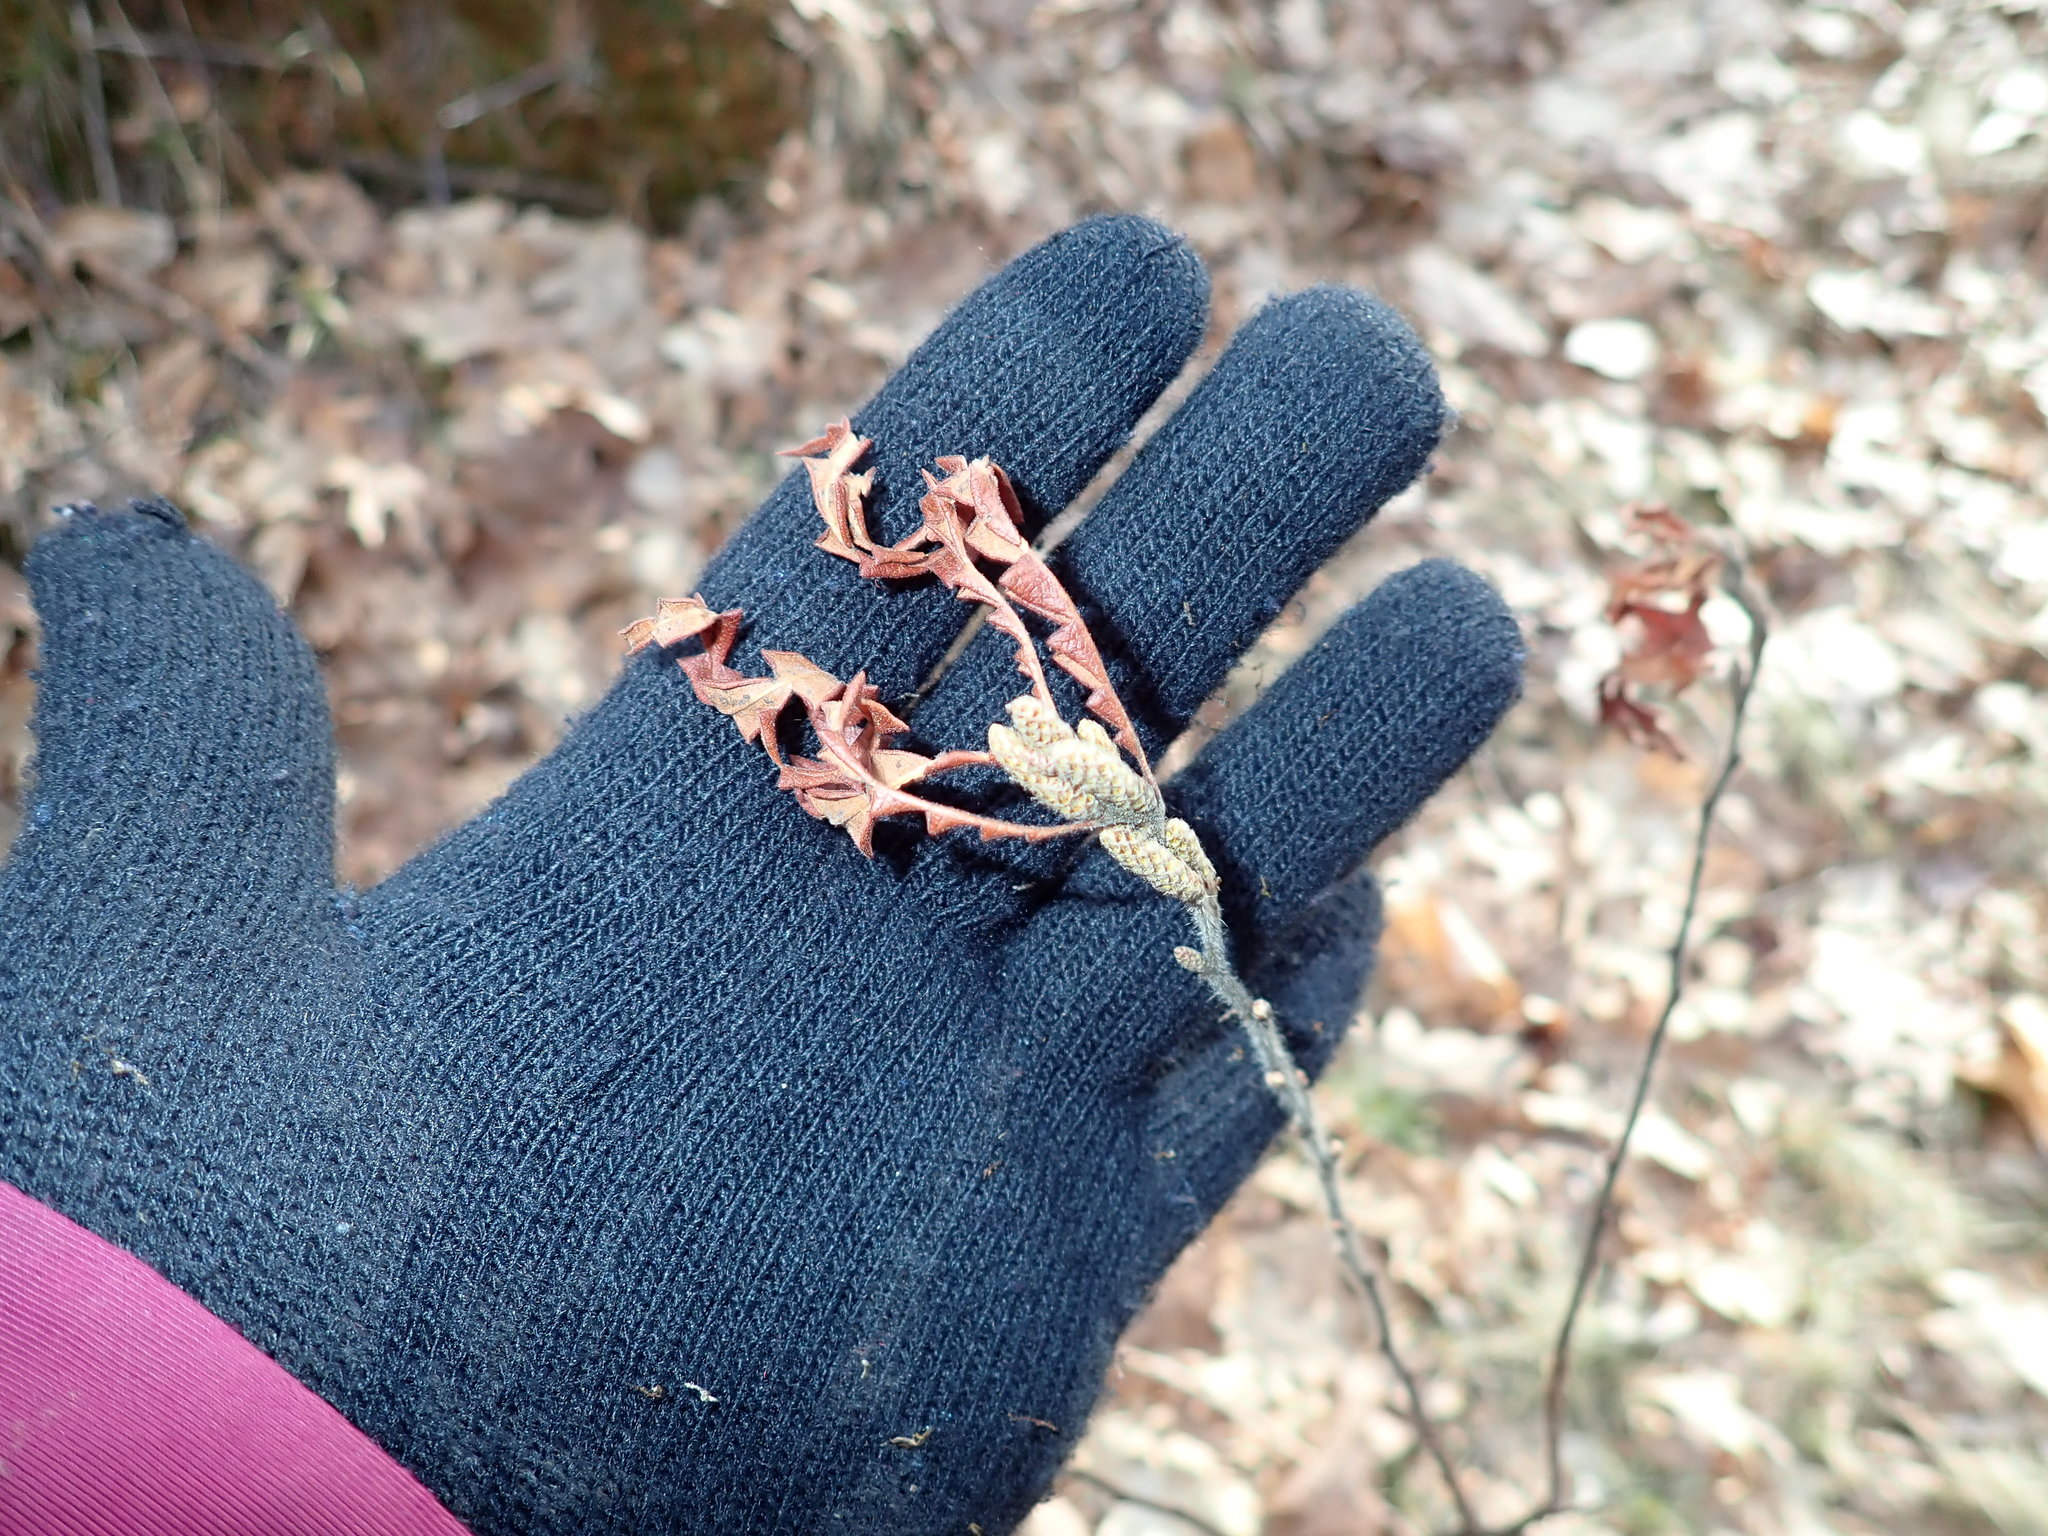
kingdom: Plantae
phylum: Tracheophyta
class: Magnoliopsida
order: Fagales
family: Myricaceae
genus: Comptonia
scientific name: Comptonia peregrina
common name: Sweet-fern
